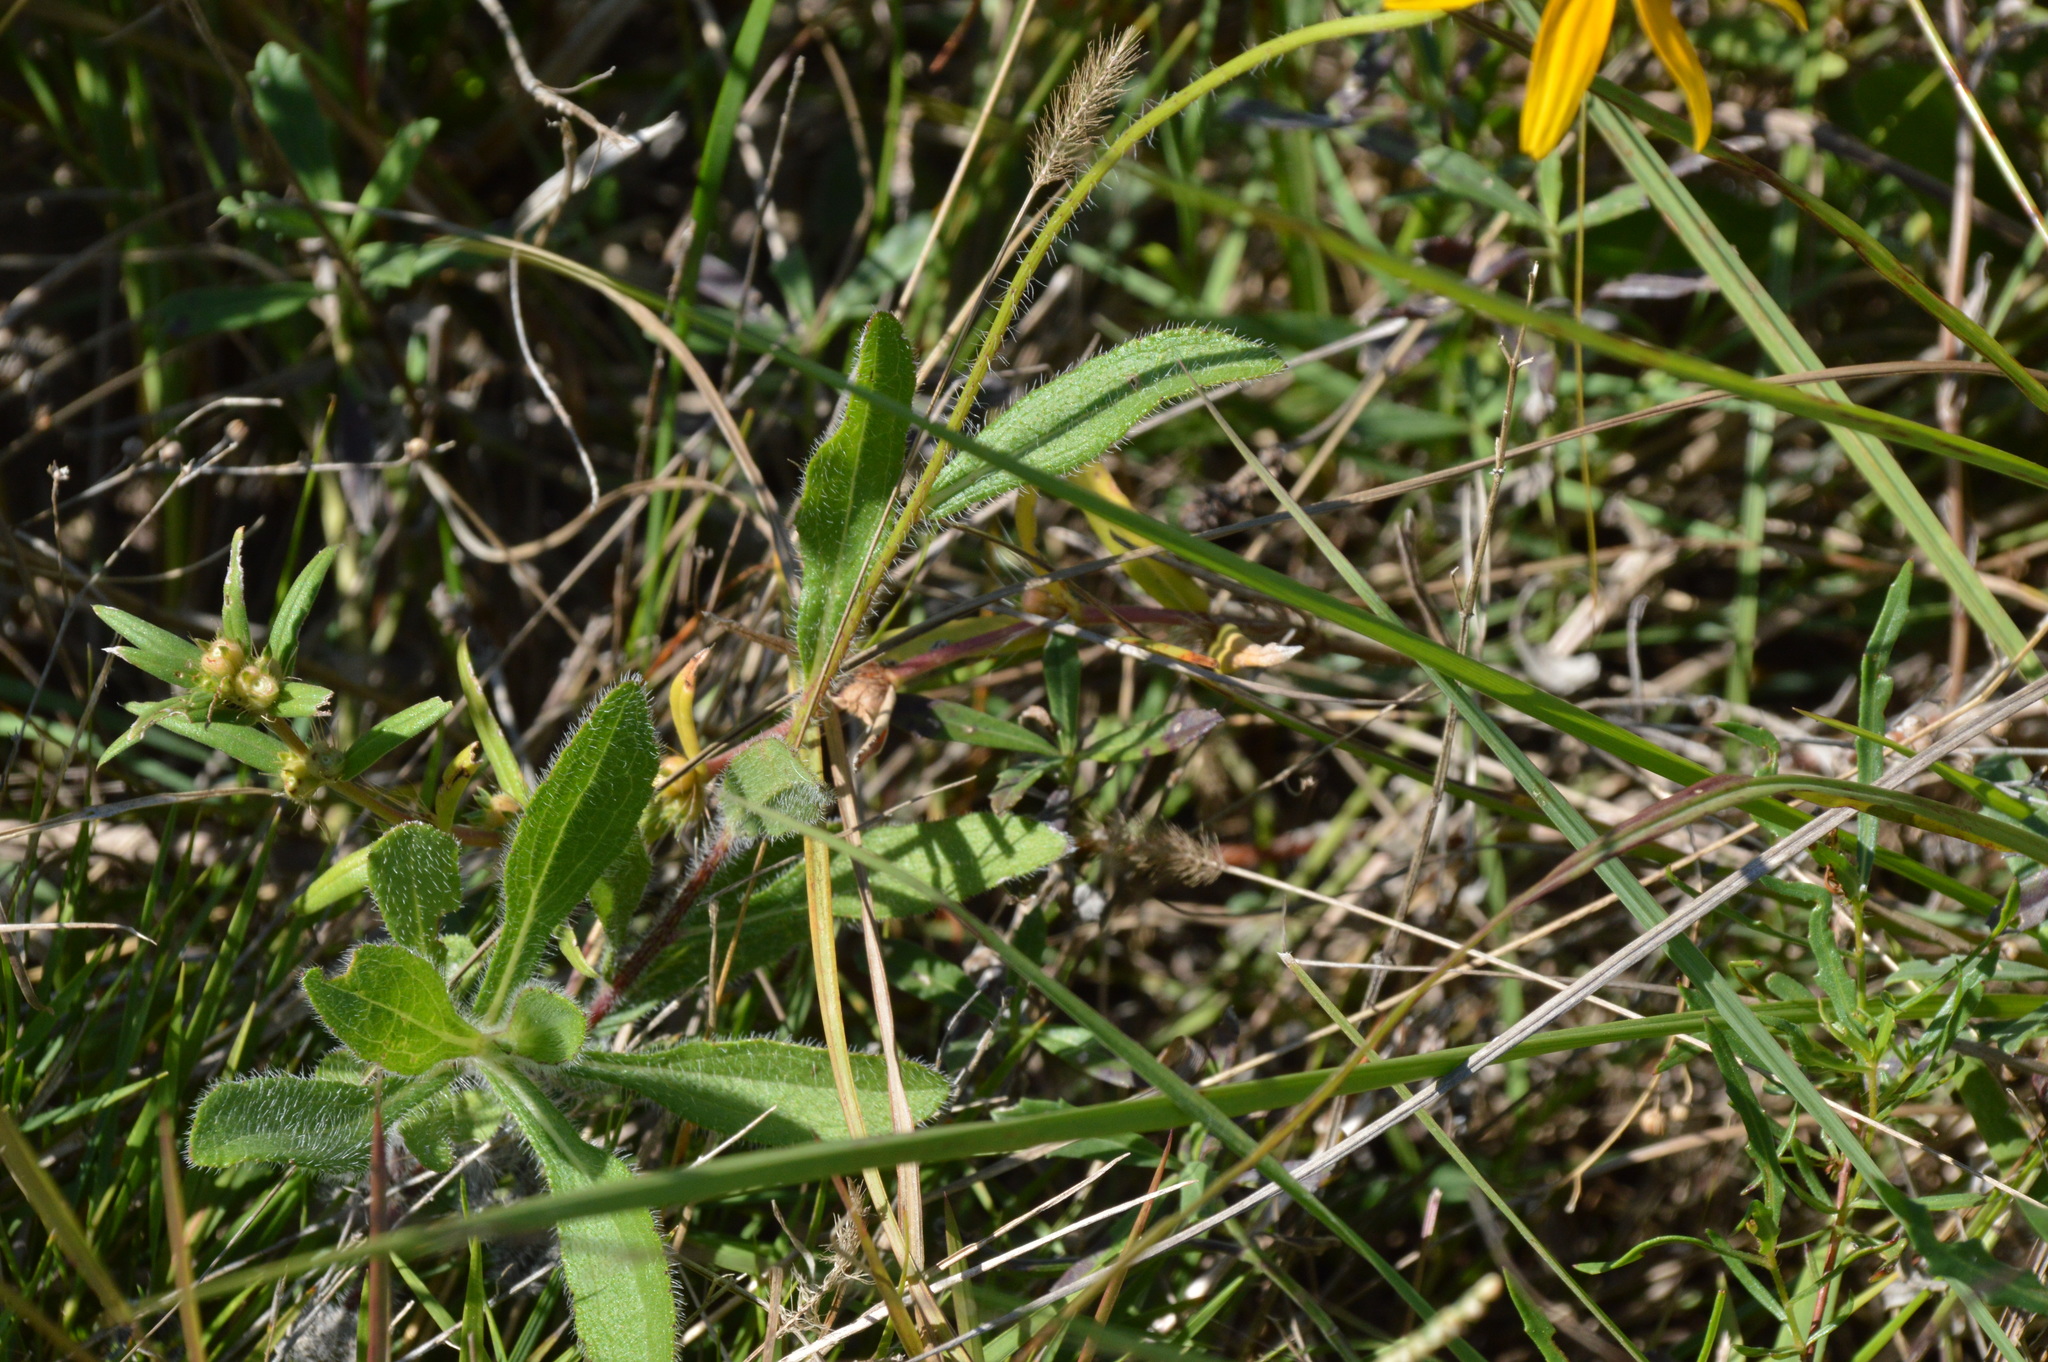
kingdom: Plantae
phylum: Tracheophyta
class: Magnoliopsida
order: Asterales
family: Asteraceae
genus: Rudbeckia
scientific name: Rudbeckia hirta
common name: Black-eyed-susan
